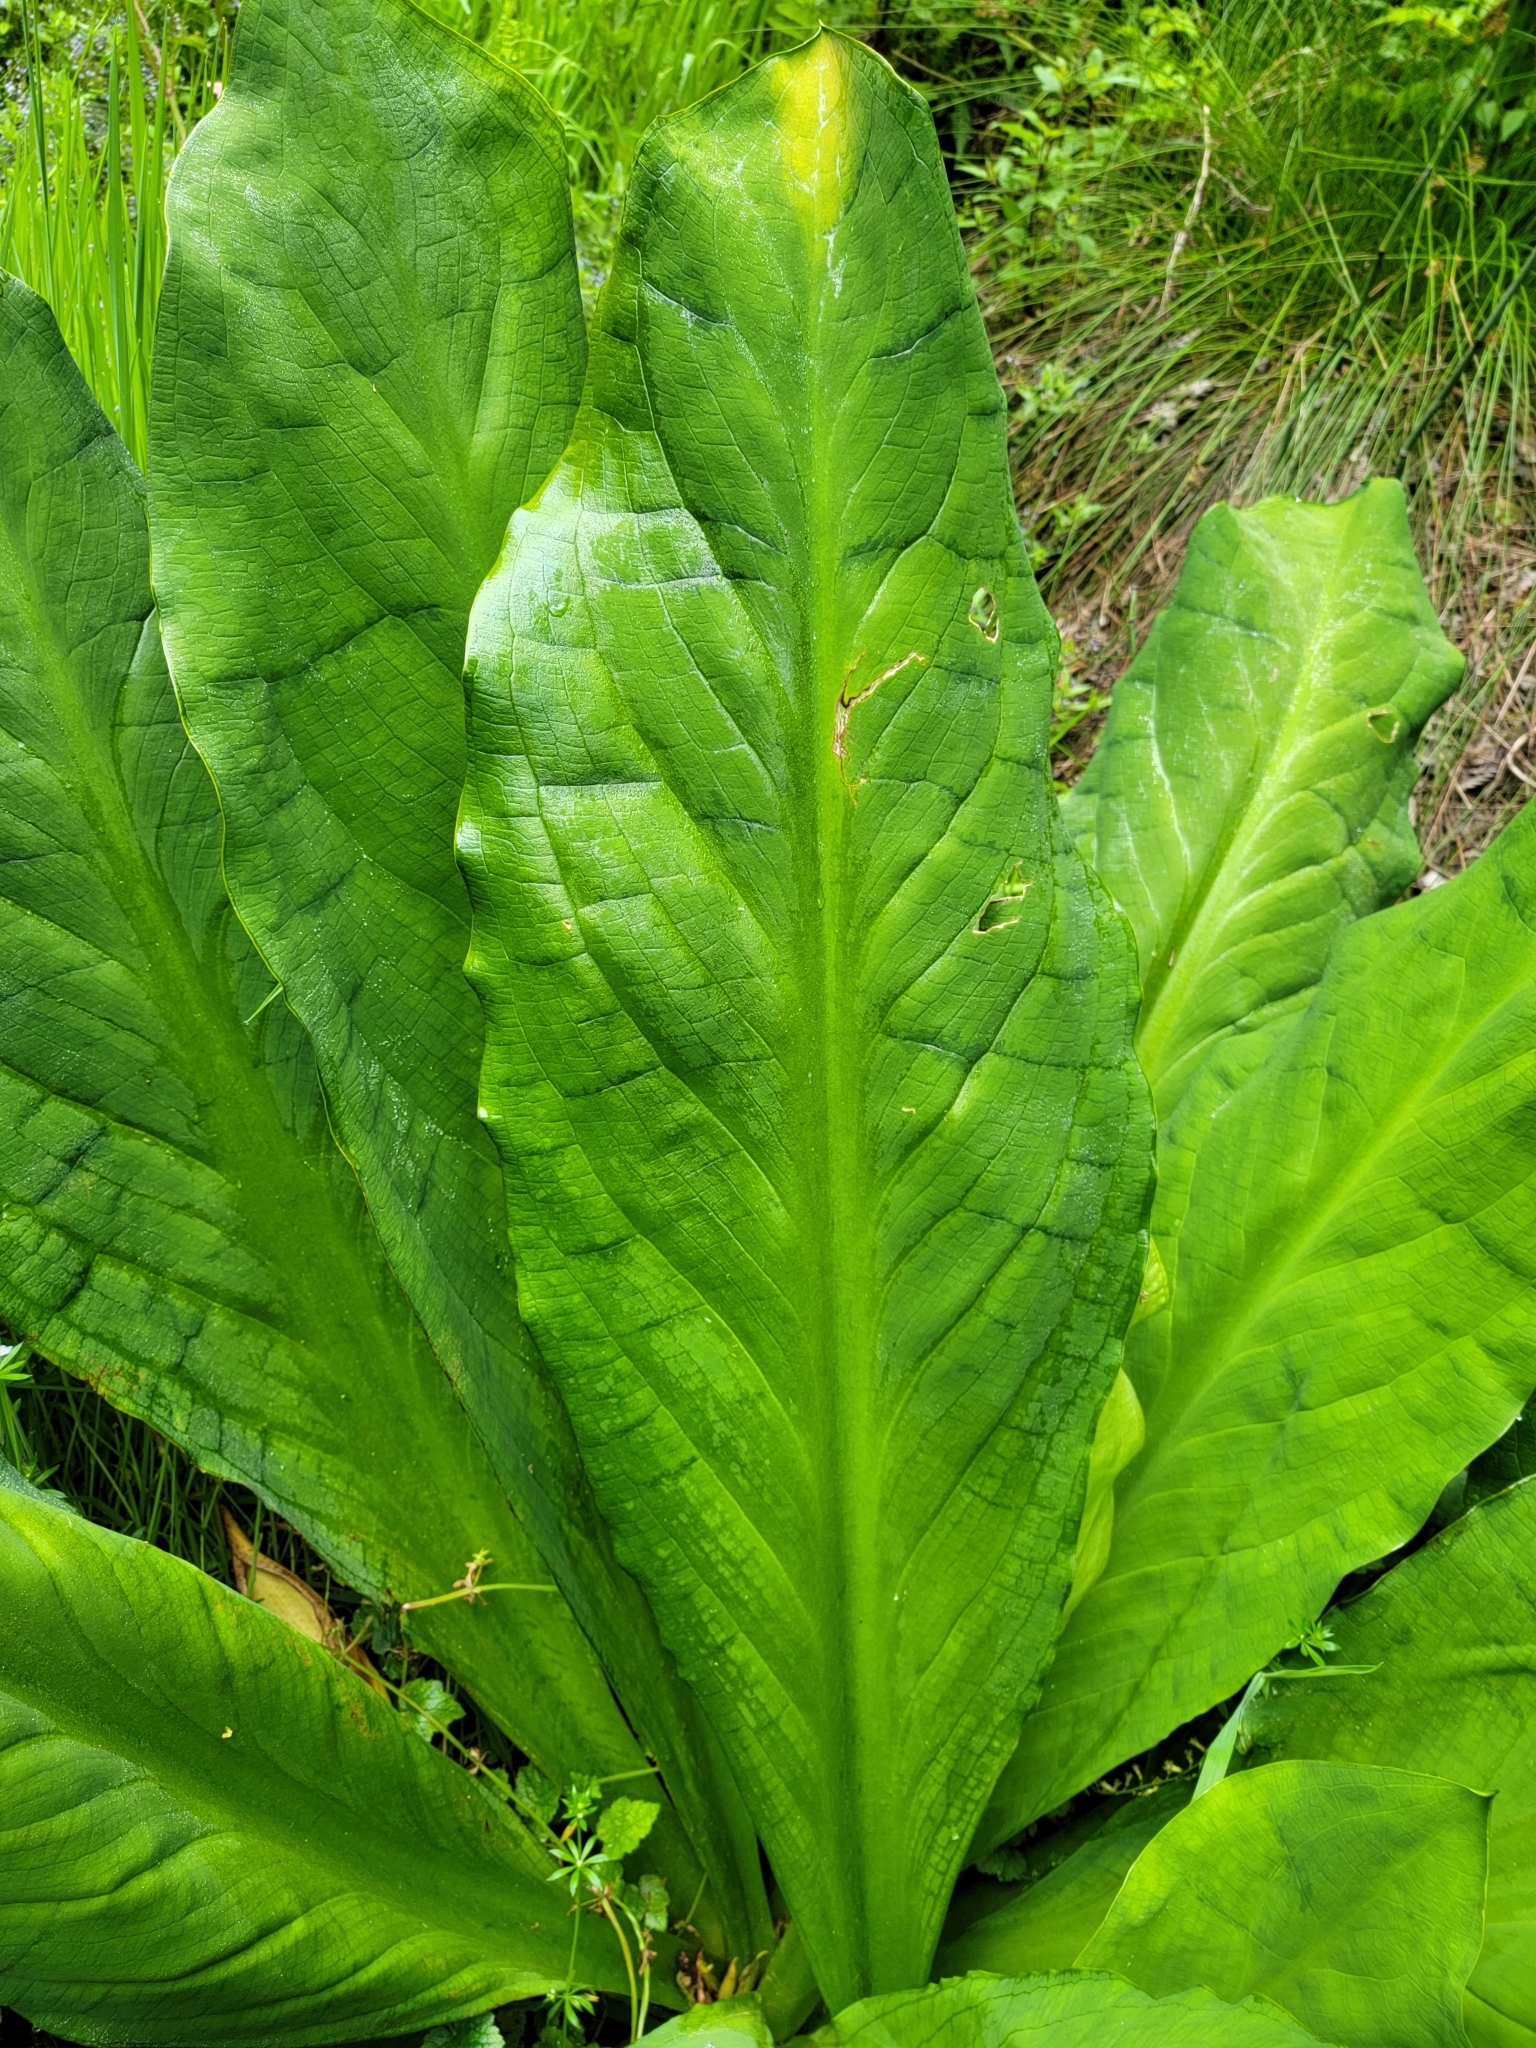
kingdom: Plantae
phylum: Tracheophyta
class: Liliopsida
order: Alismatales
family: Araceae
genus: Lysichiton
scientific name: Lysichiton americanus
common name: American skunk cabbage
